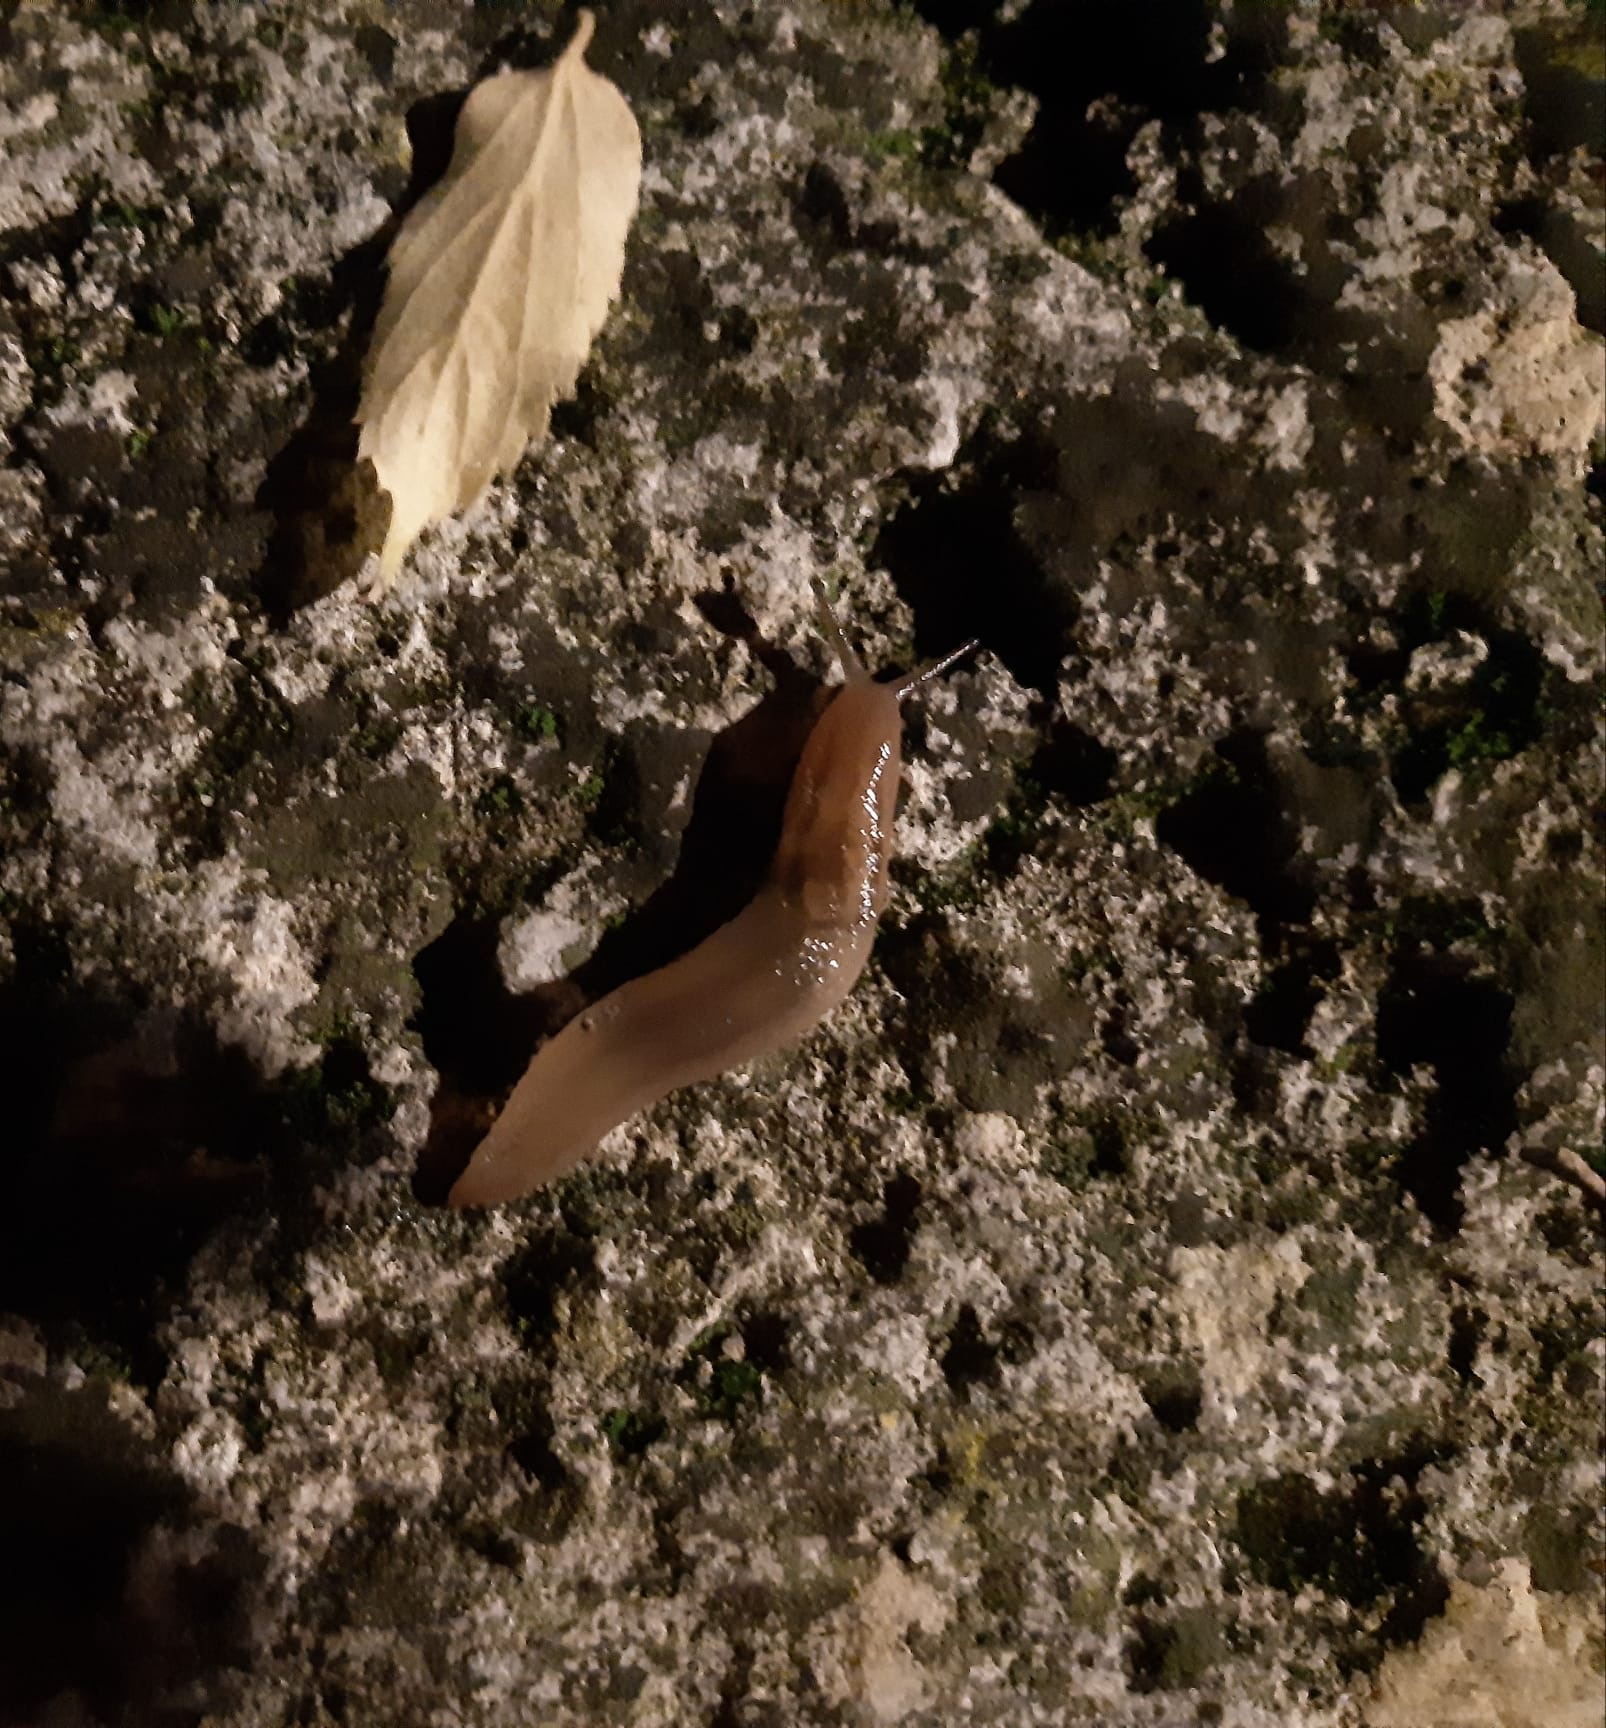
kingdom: Animalia
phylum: Mollusca
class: Gastropoda
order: Stylommatophora
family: Limacidae
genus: Ambigolimax
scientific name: Ambigolimax valentianus
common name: Greenhouse slug
